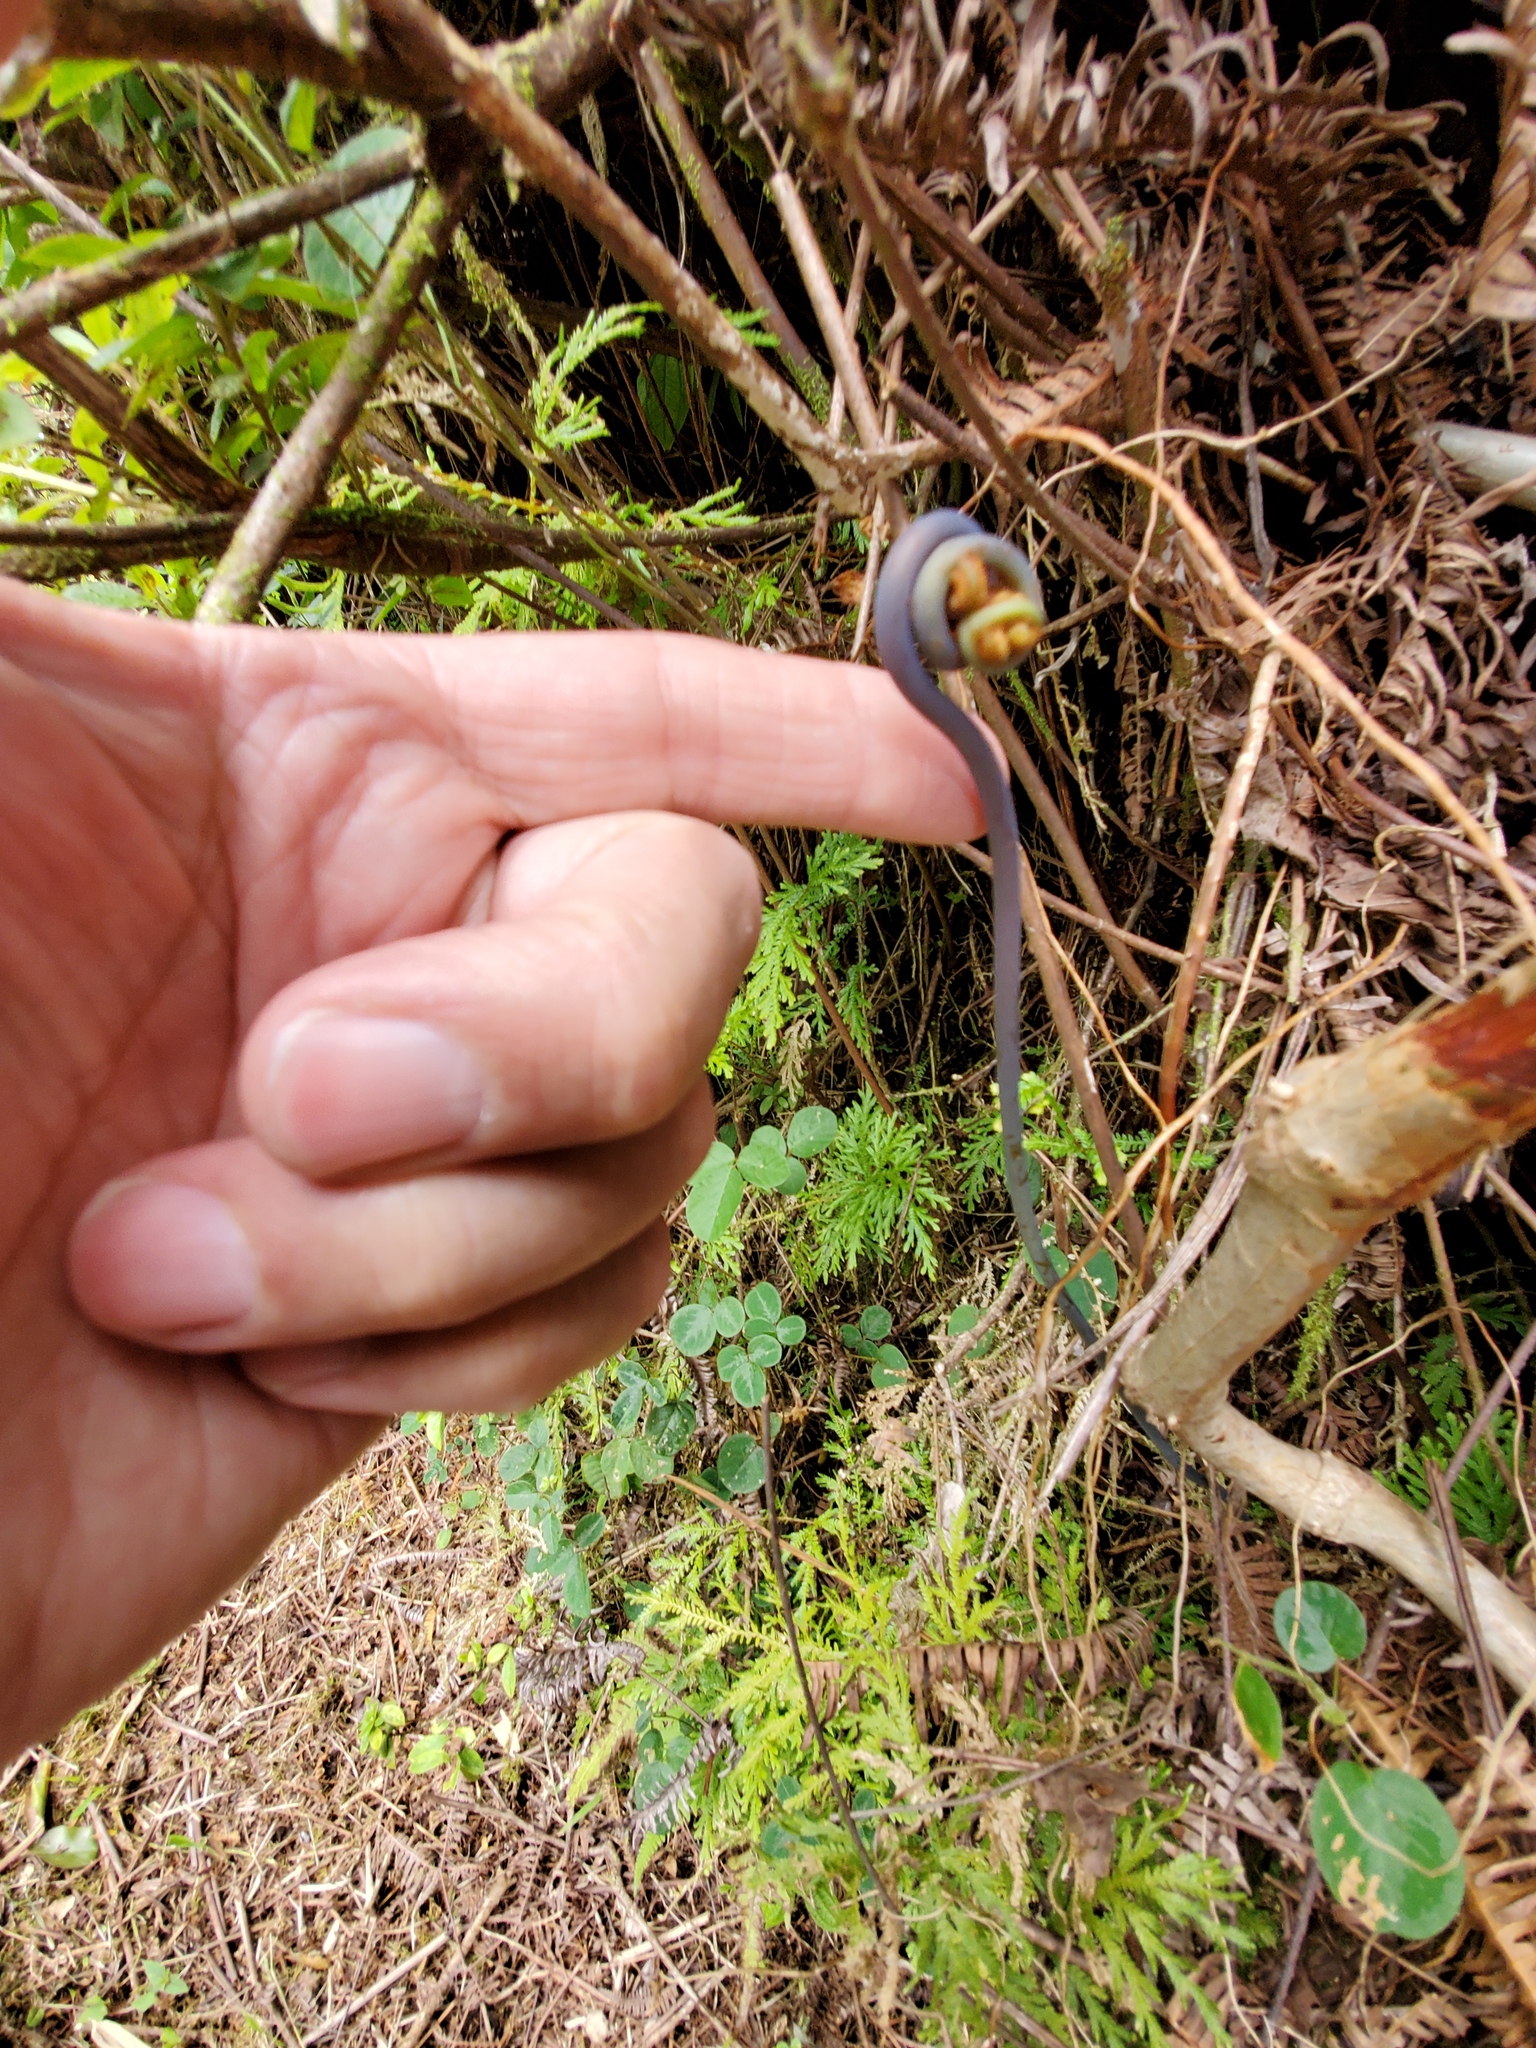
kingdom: Plantae
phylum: Tracheophyta
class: Polypodiopsida
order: Gleicheniales
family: Gleicheniaceae
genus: Dicranopteris
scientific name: Dicranopteris linearis
